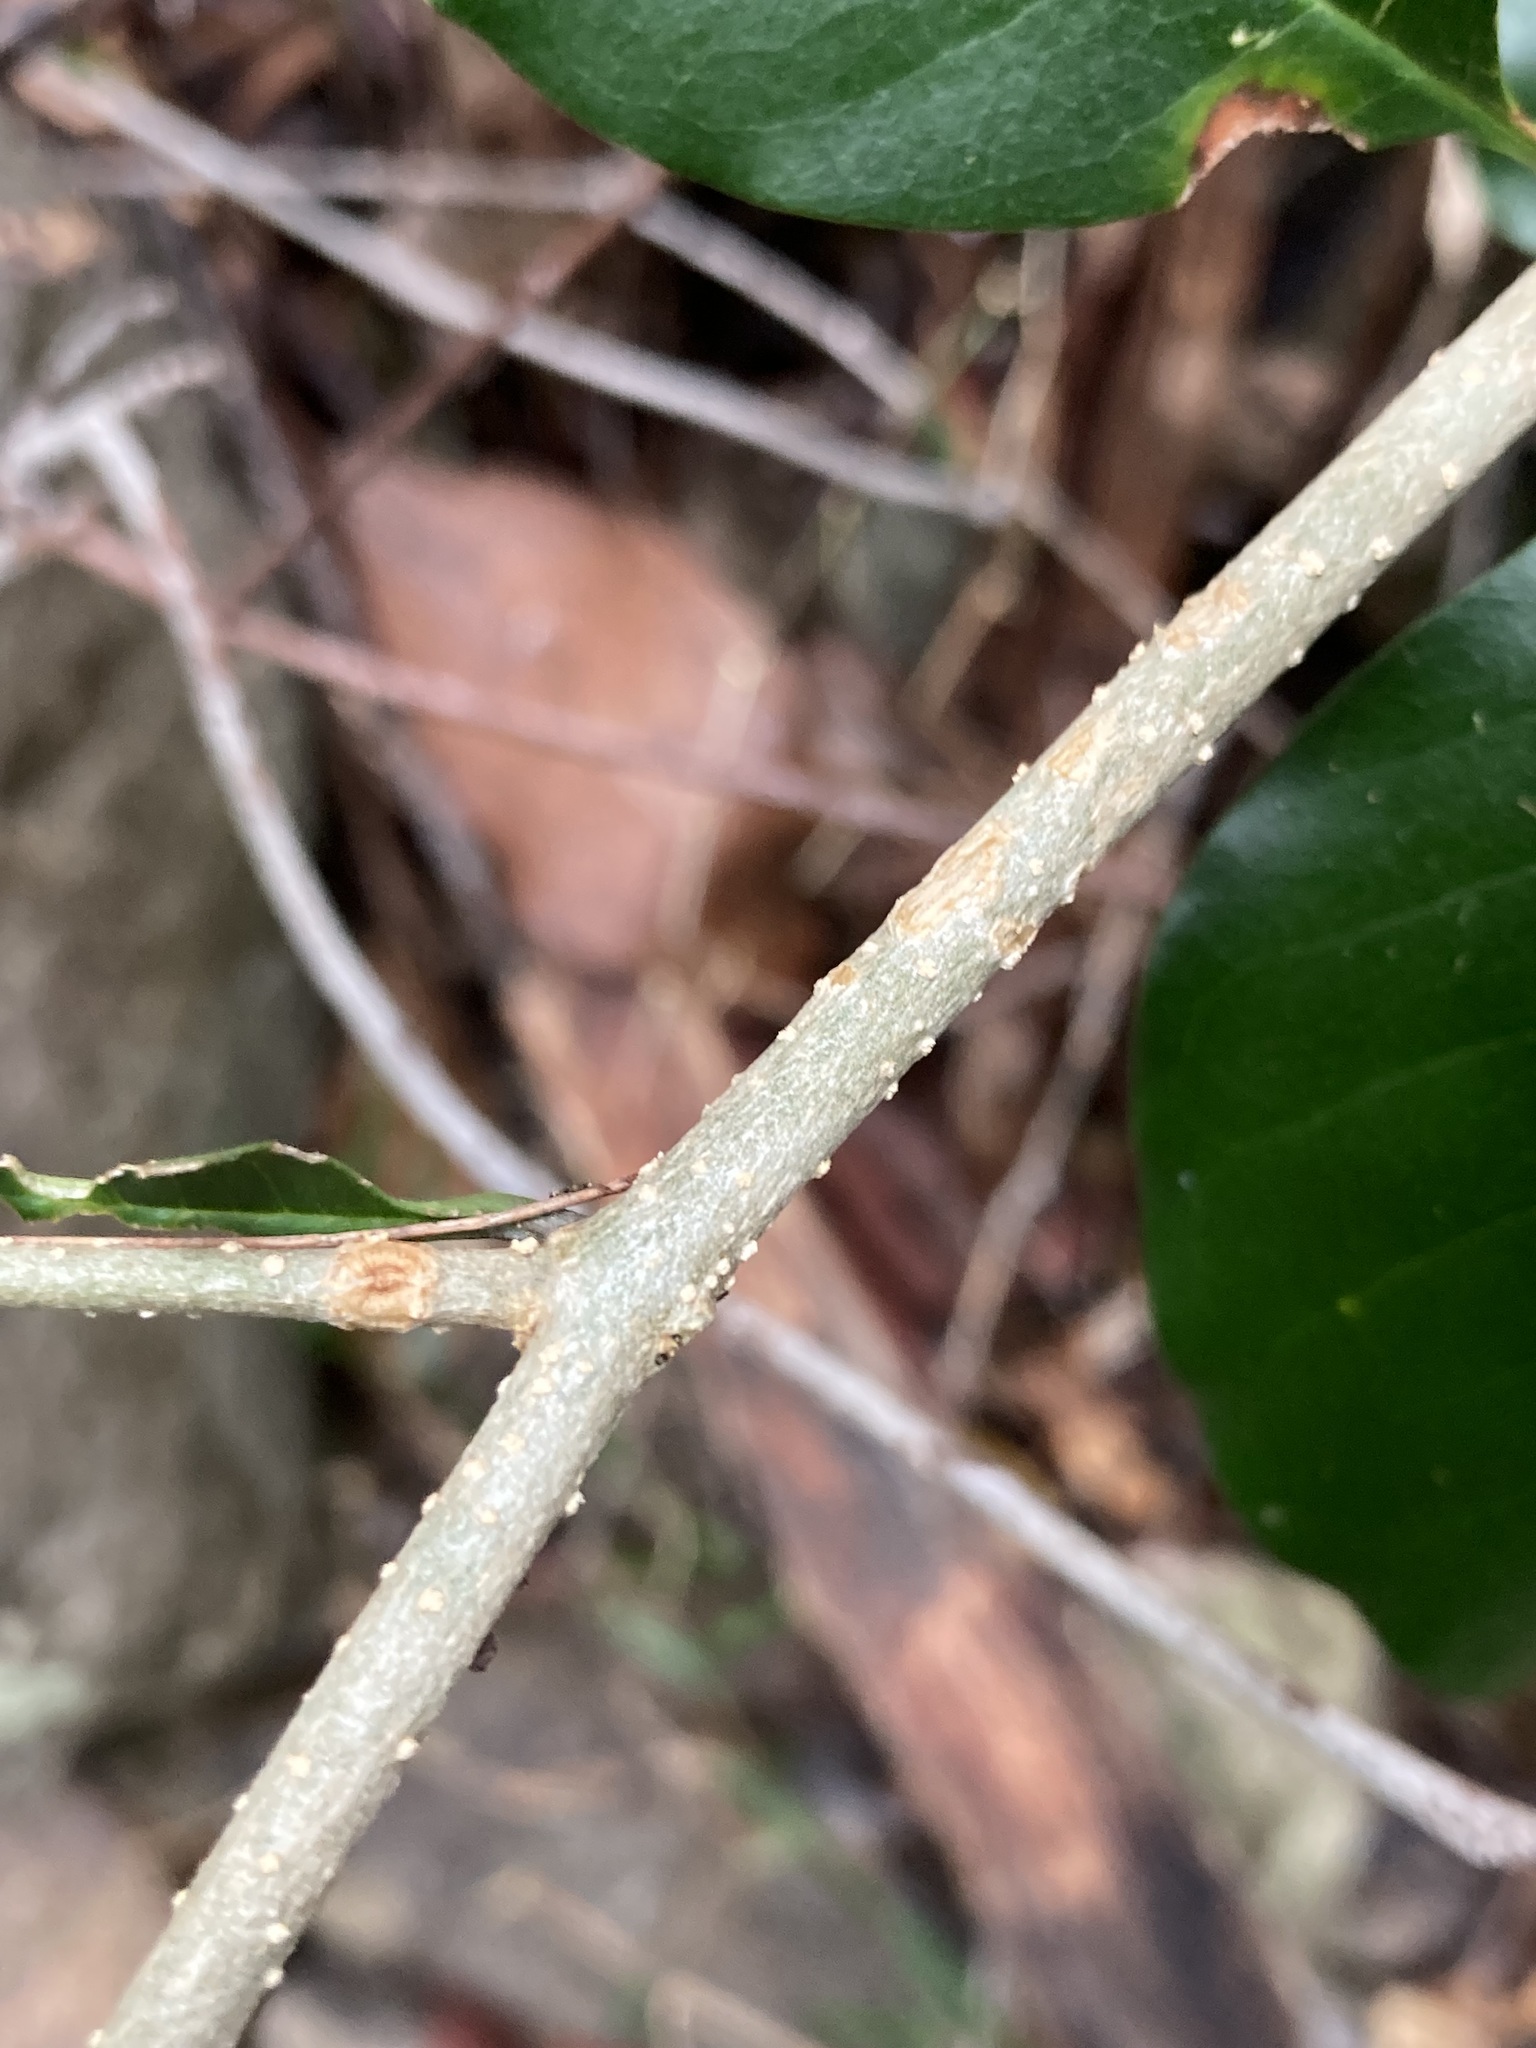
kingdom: Plantae
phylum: Tracheophyta
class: Magnoliopsida
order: Lamiales
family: Oleaceae
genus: Olea
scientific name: Olea paniculata
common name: Australian olive
